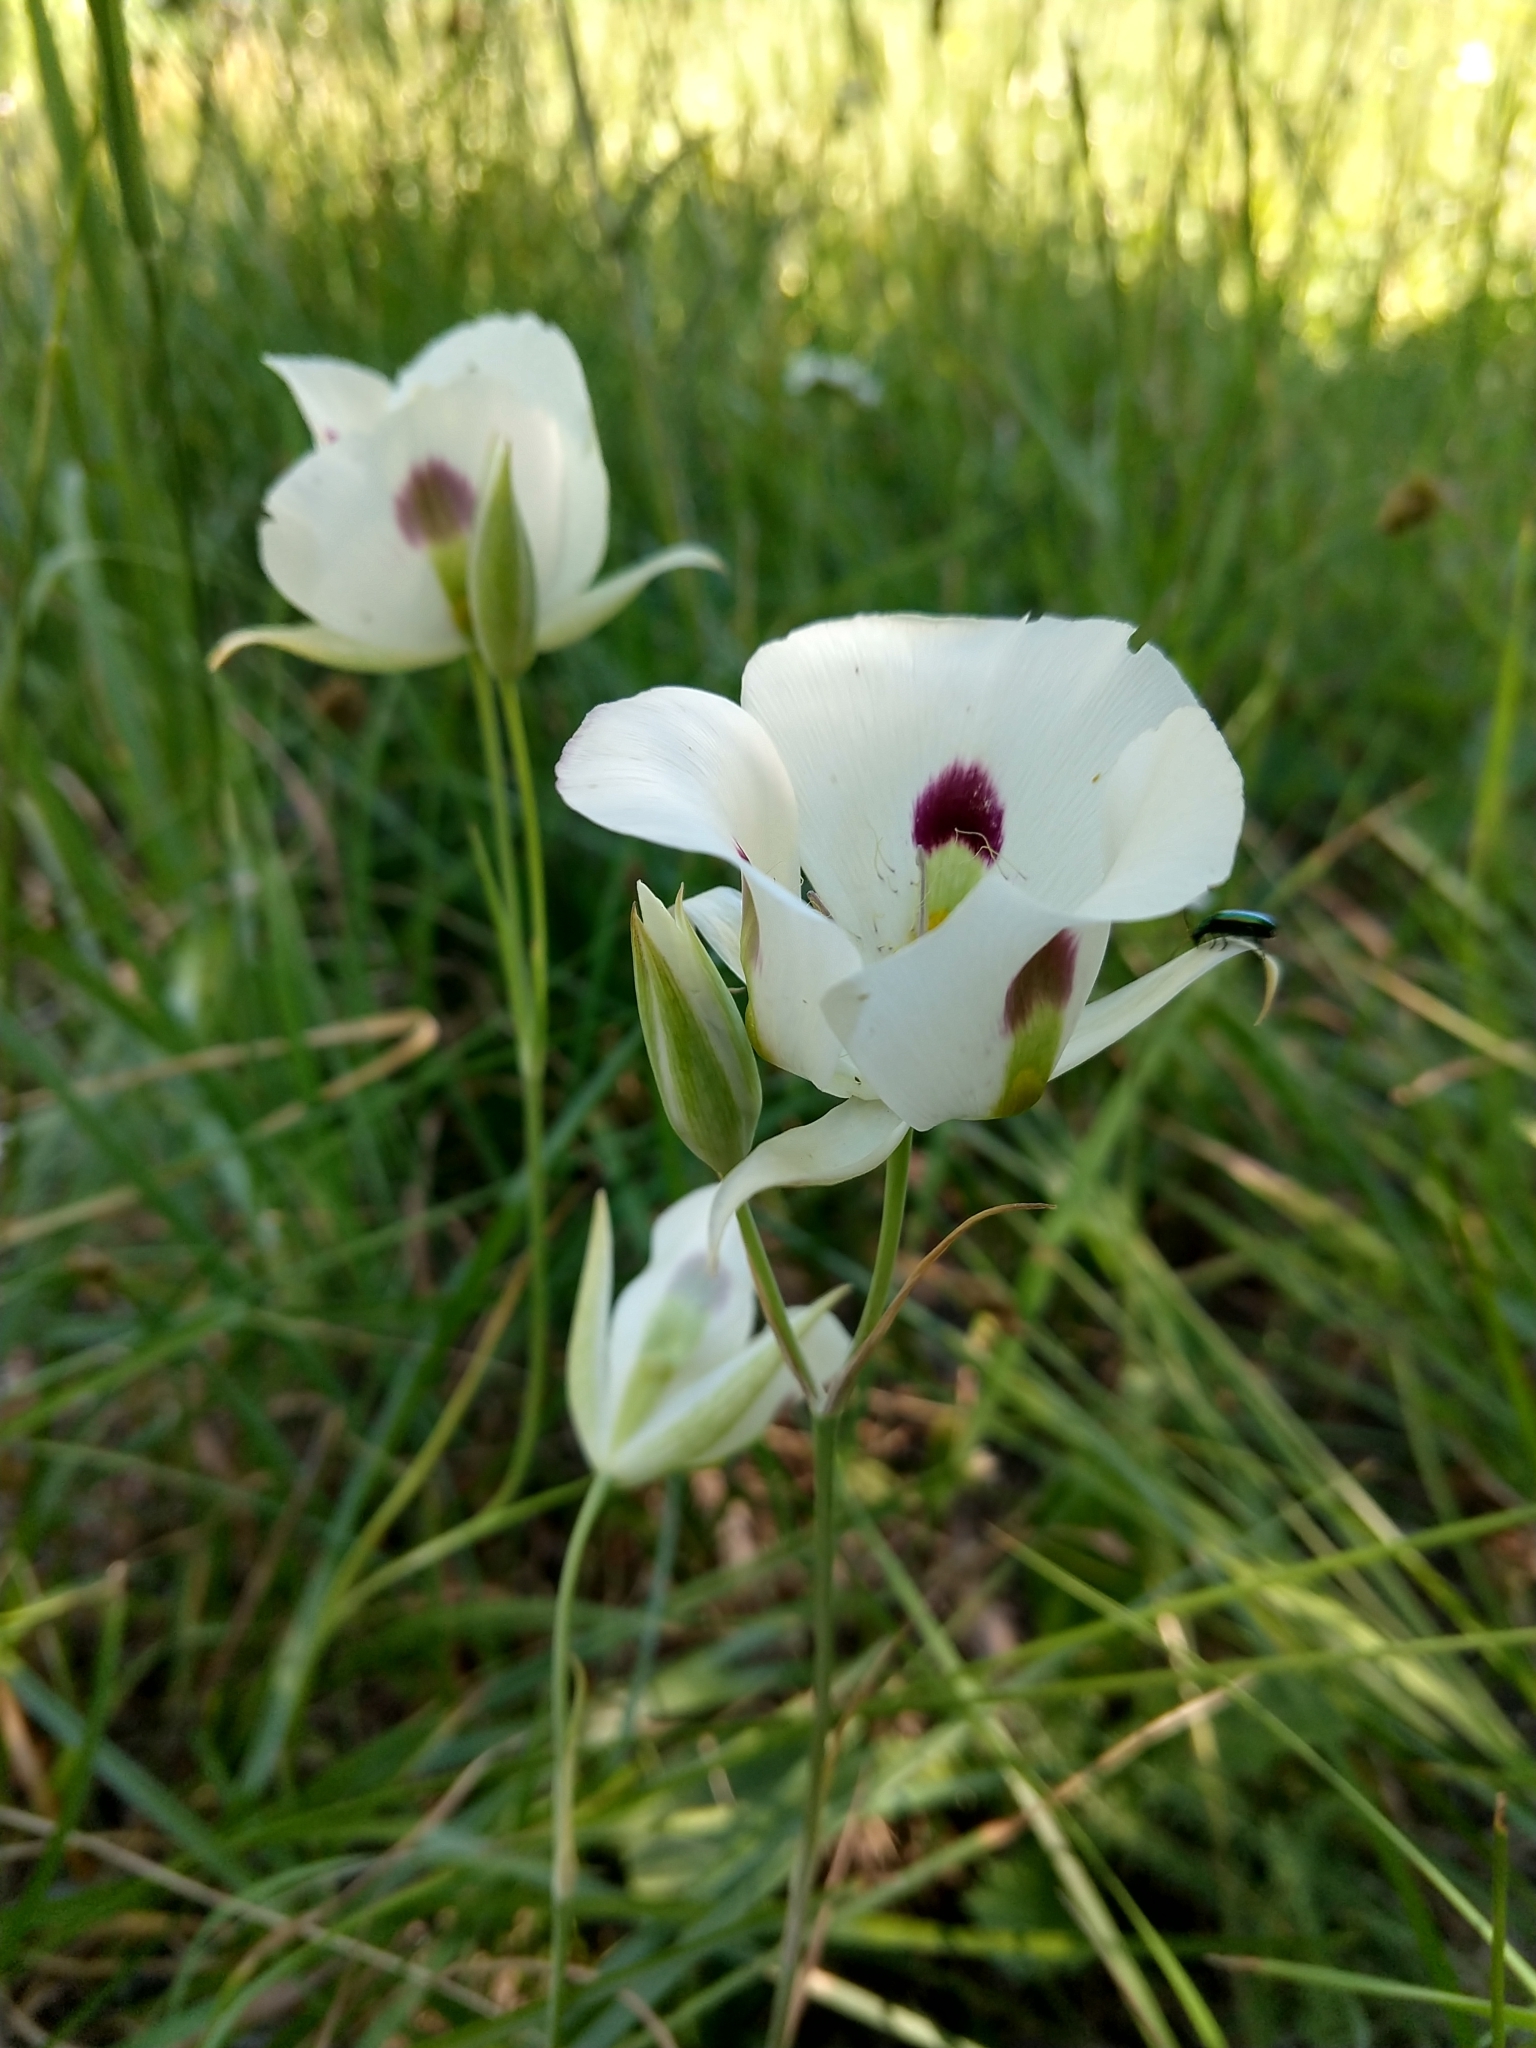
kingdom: Plantae
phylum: Tracheophyta
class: Liliopsida
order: Liliales
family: Liliaceae
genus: Calochortus
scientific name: Calochortus eurycarpus
